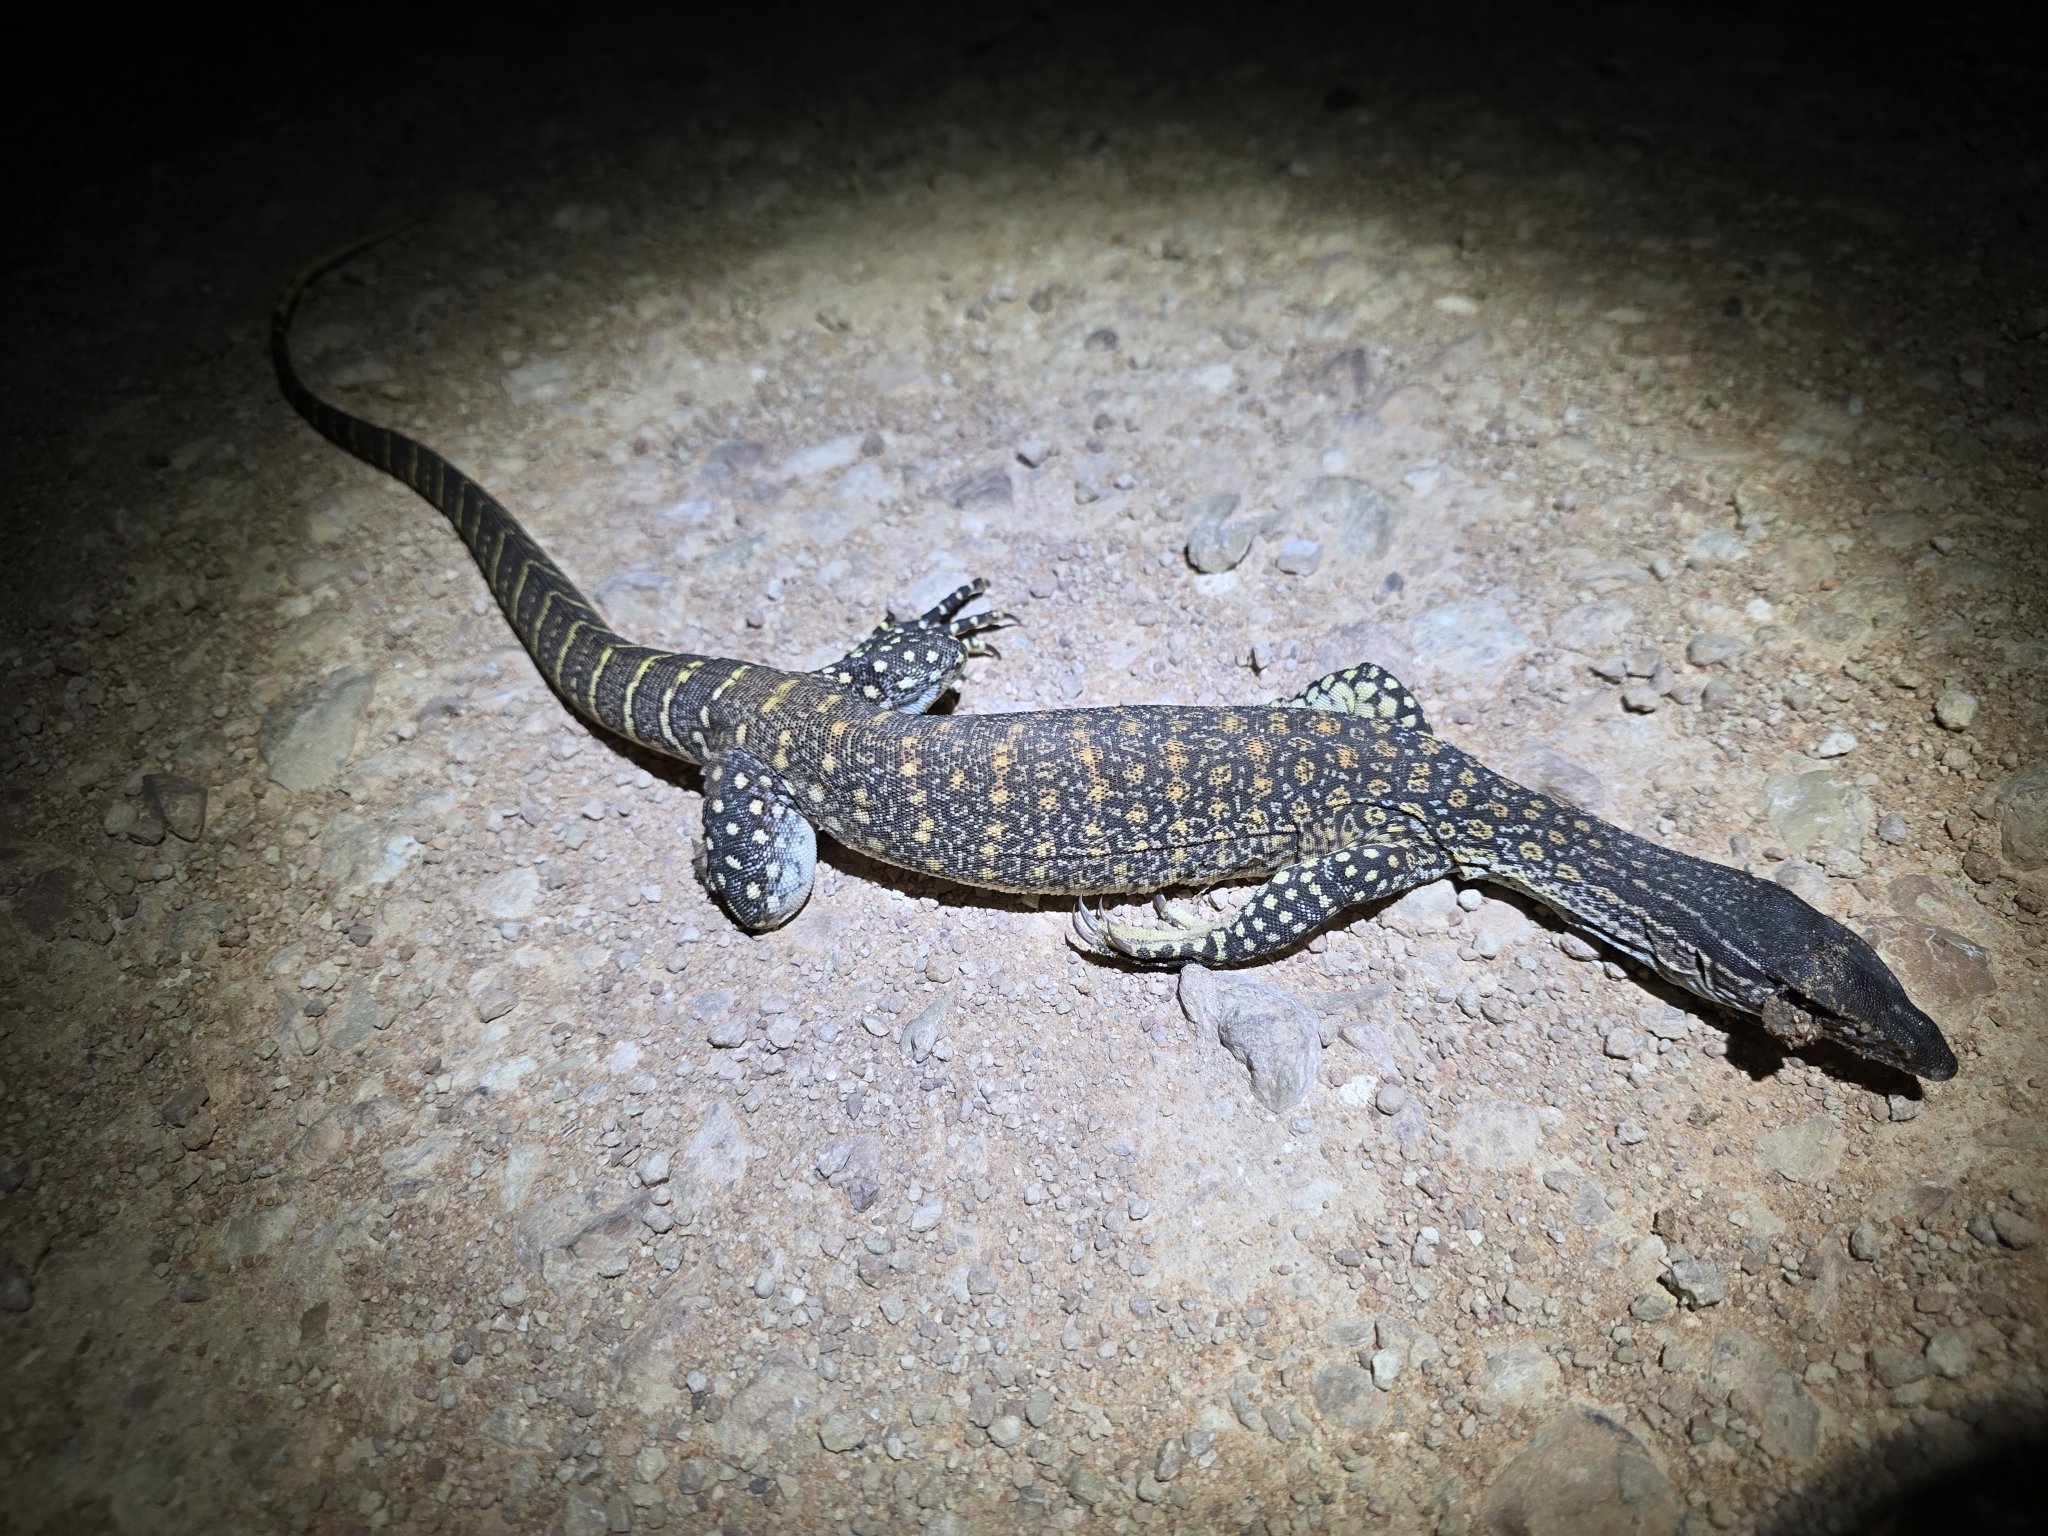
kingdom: Animalia
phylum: Chordata
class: Squamata
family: Varanidae
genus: Varanus
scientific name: Varanus gouldii
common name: Gould's goanna
